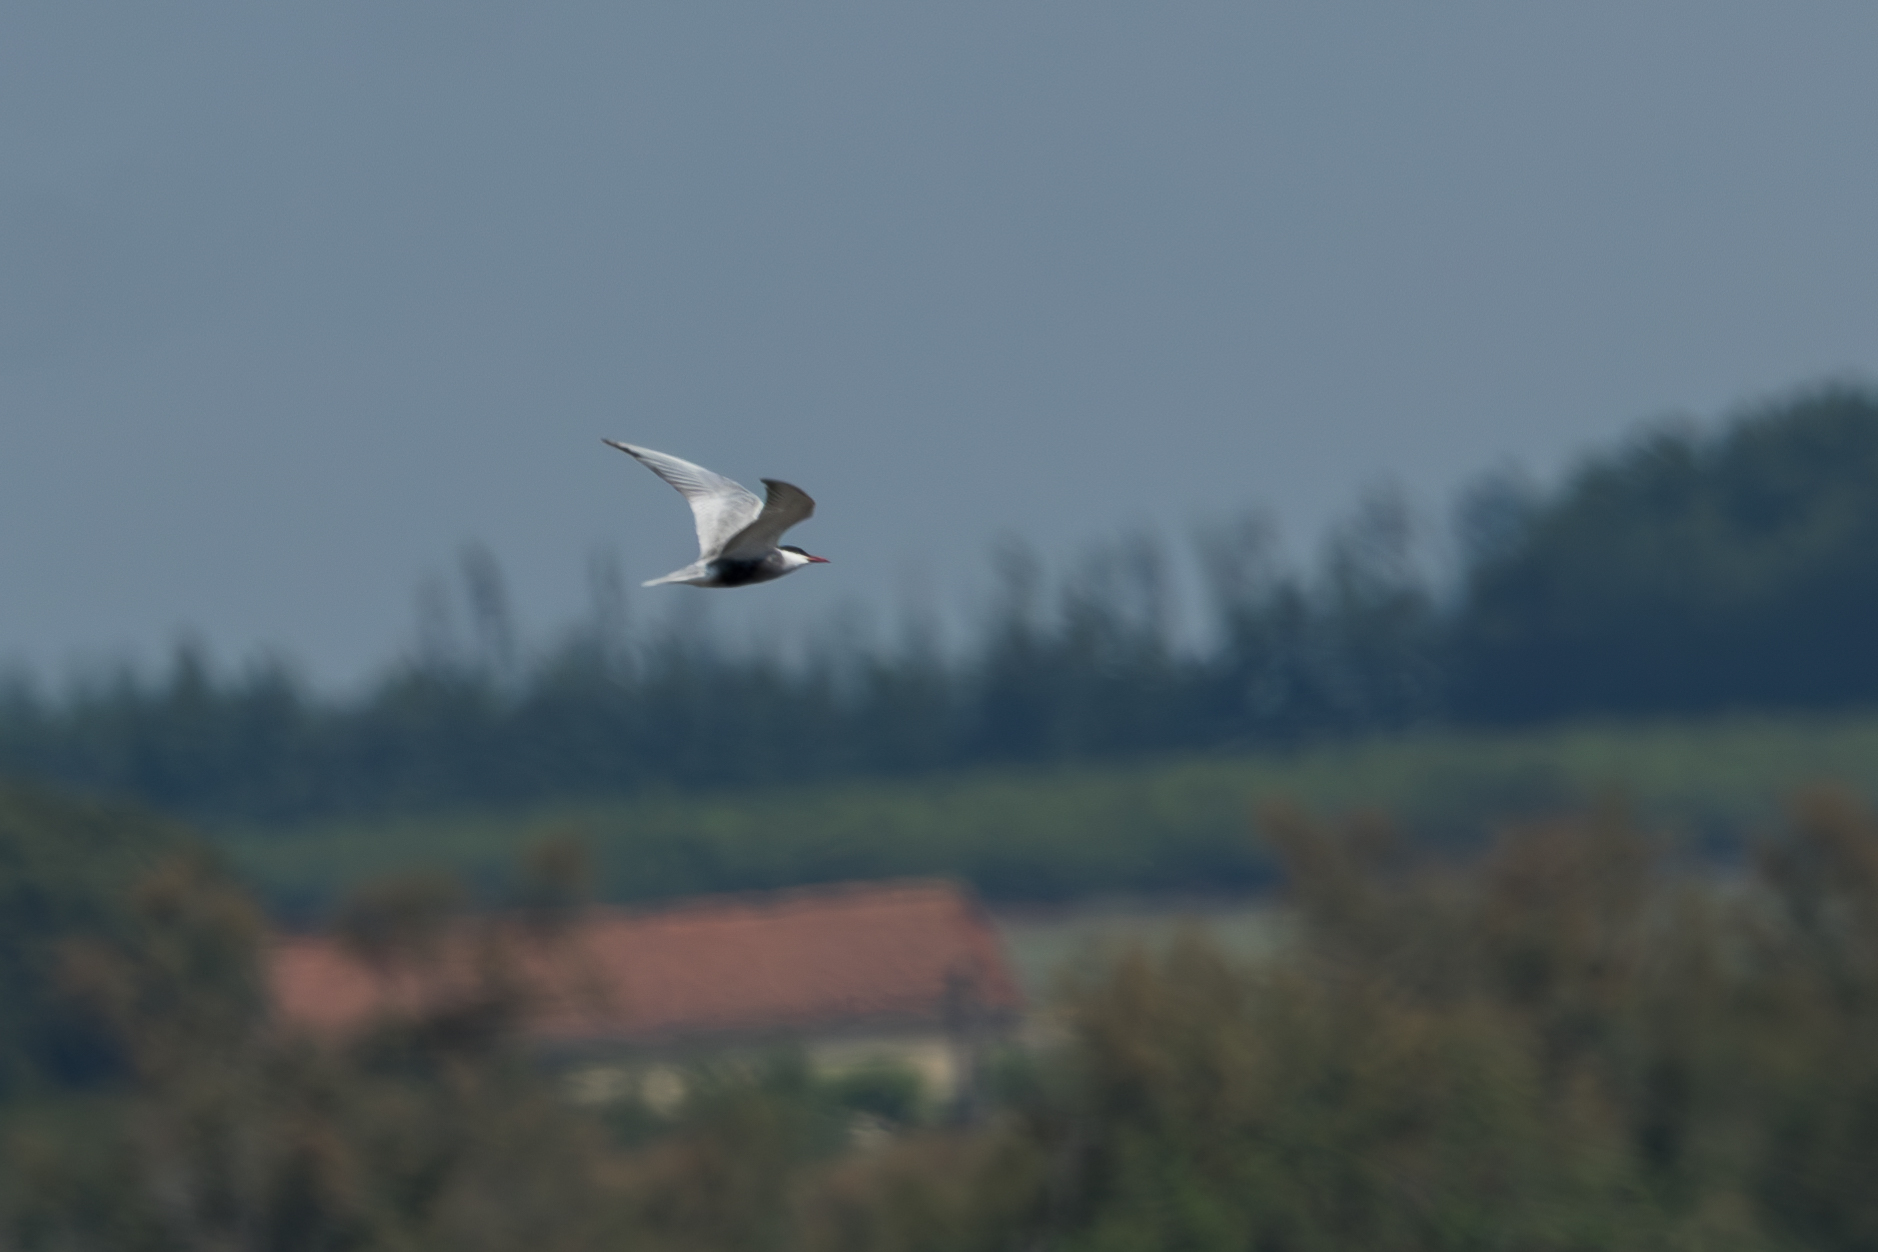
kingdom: Animalia
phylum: Chordata
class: Aves
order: Charadriiformes
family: Laridae
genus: Chlidonias
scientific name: Chlidonias hybrida
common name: Whiskered tern
